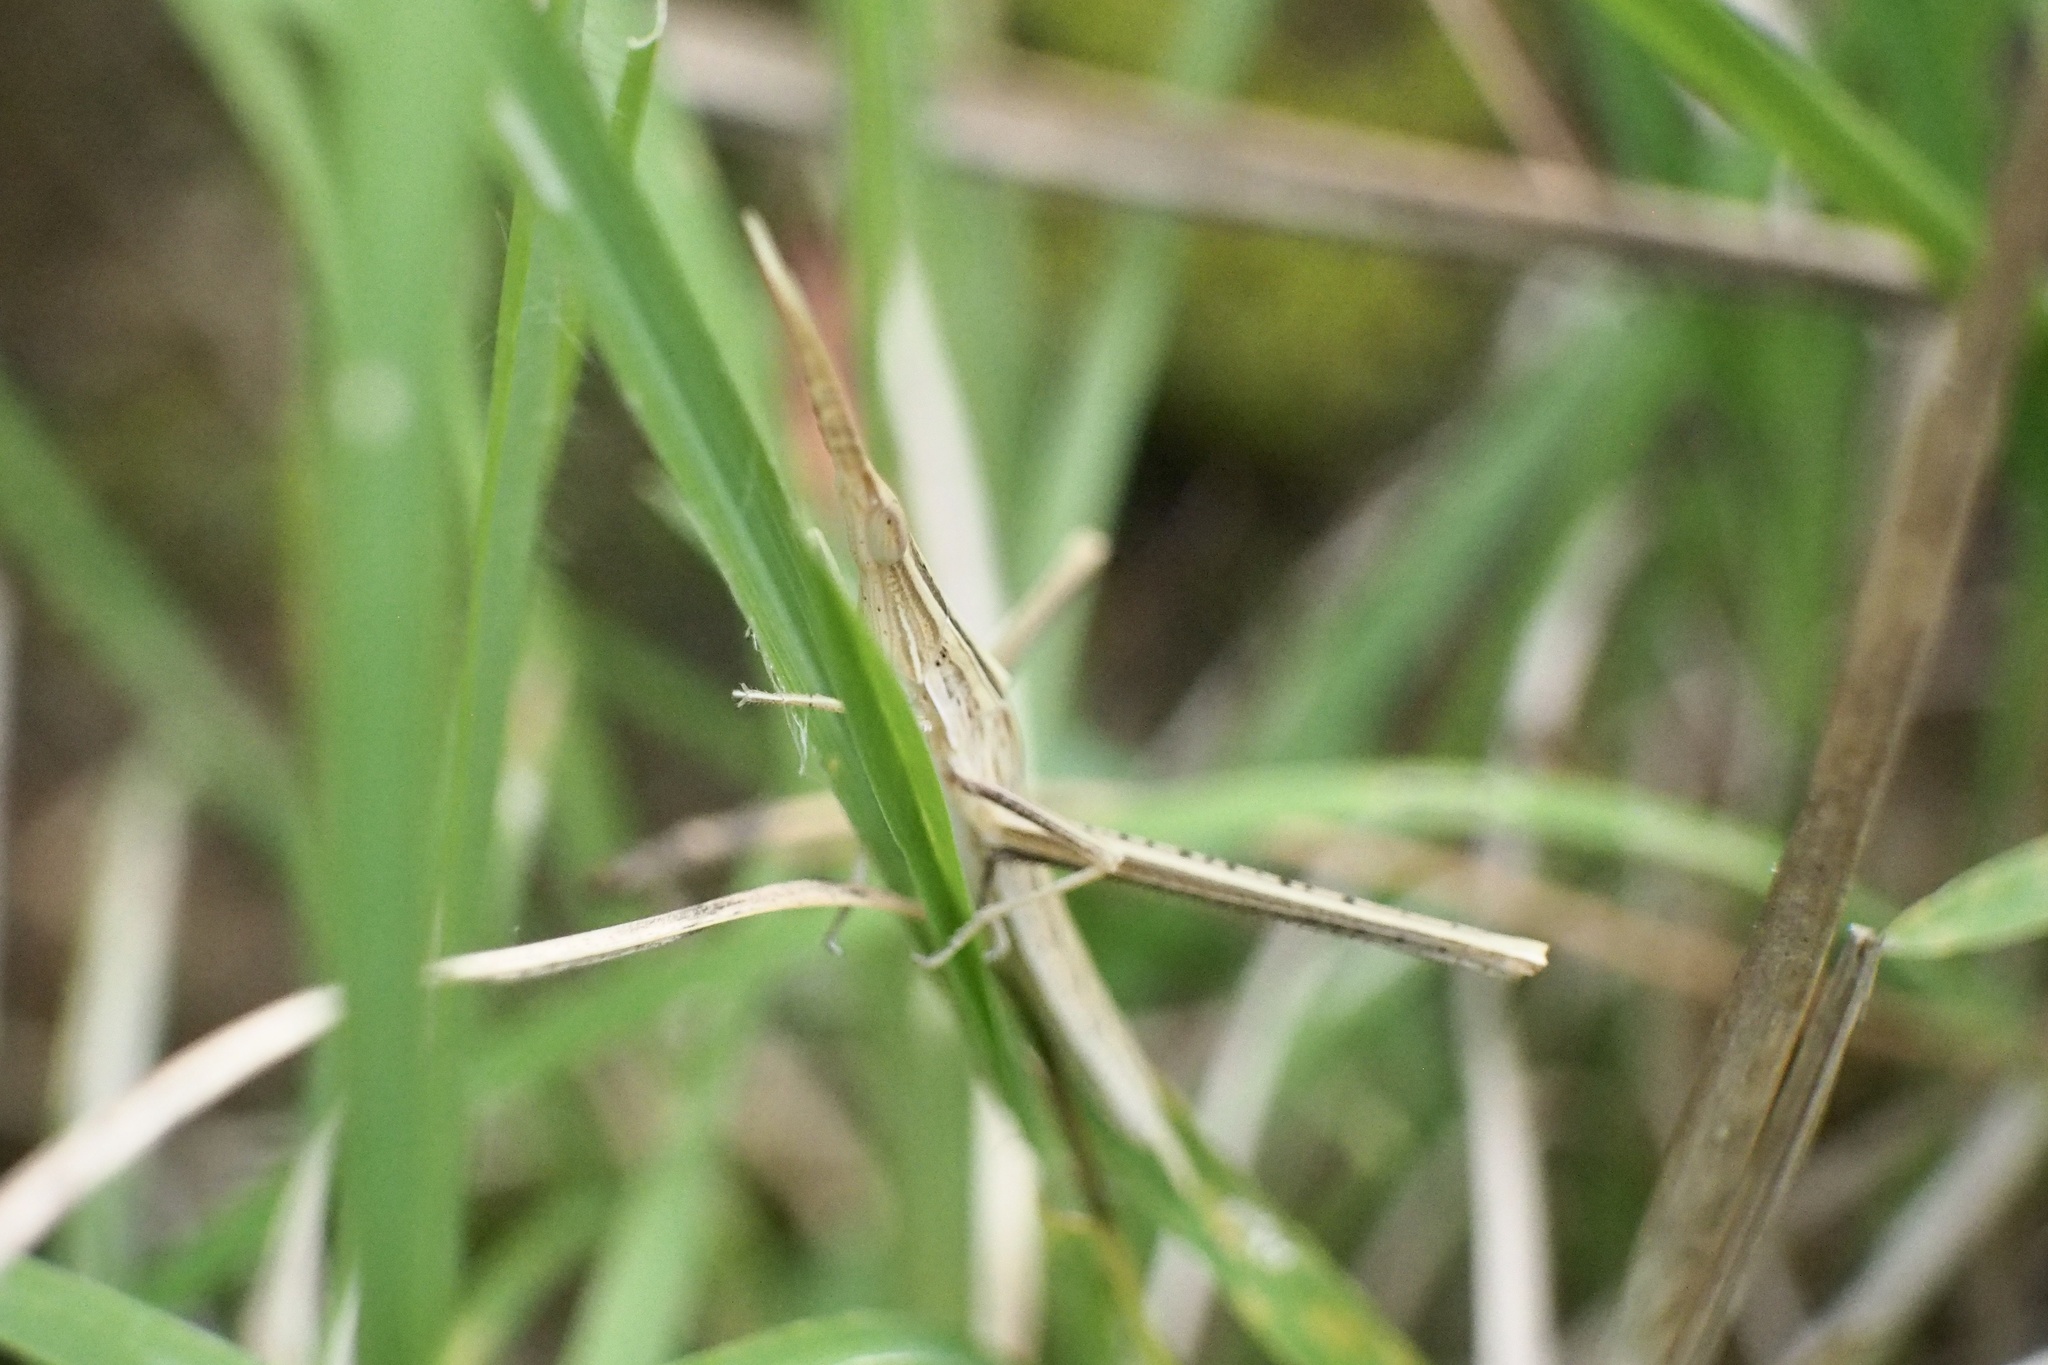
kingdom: Animalia
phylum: Arthropoda
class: Insecta
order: Orthoptera
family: Acrididae
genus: Acrida
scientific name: Acrida cinerea
